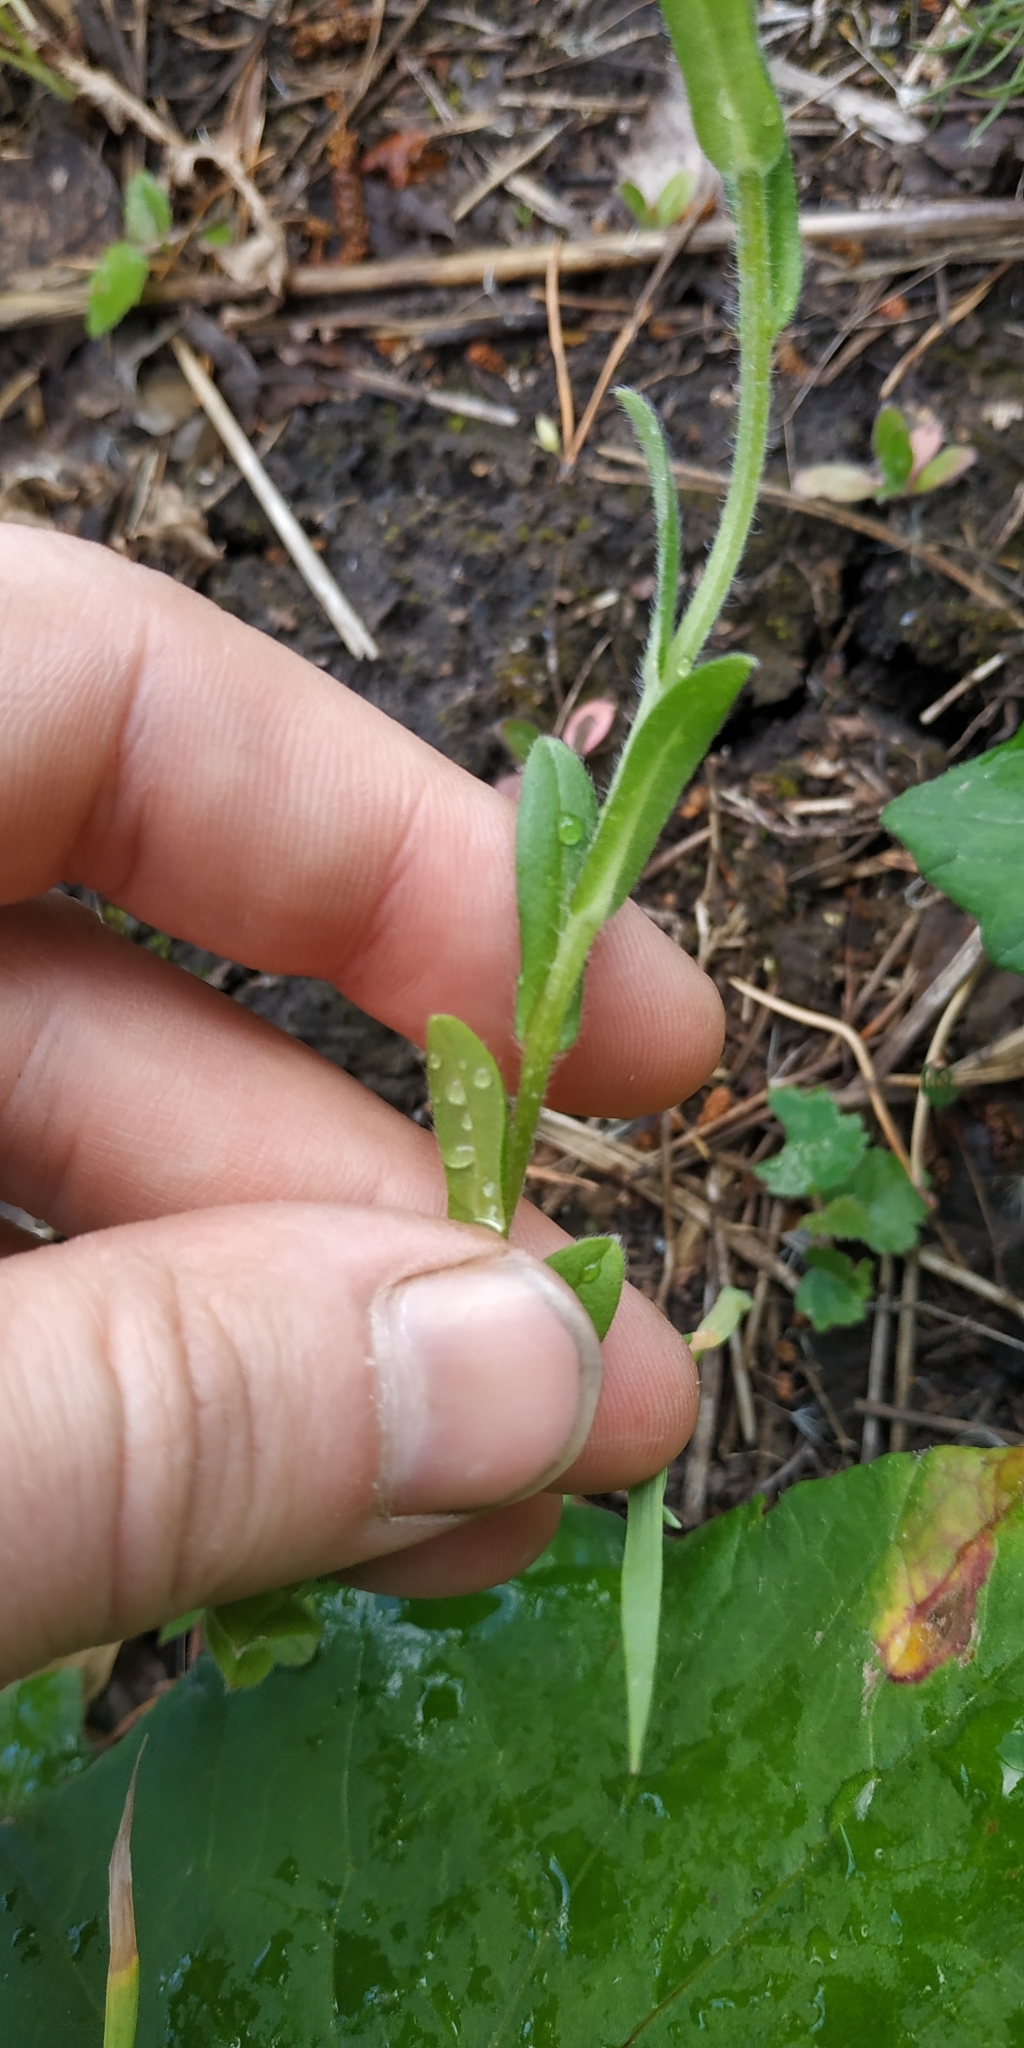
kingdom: Plantae
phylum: Tracheophyta
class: Magnoliopsida
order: Boraginales
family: Boraginaceae
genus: Myosotis
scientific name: Myosotis imitata
